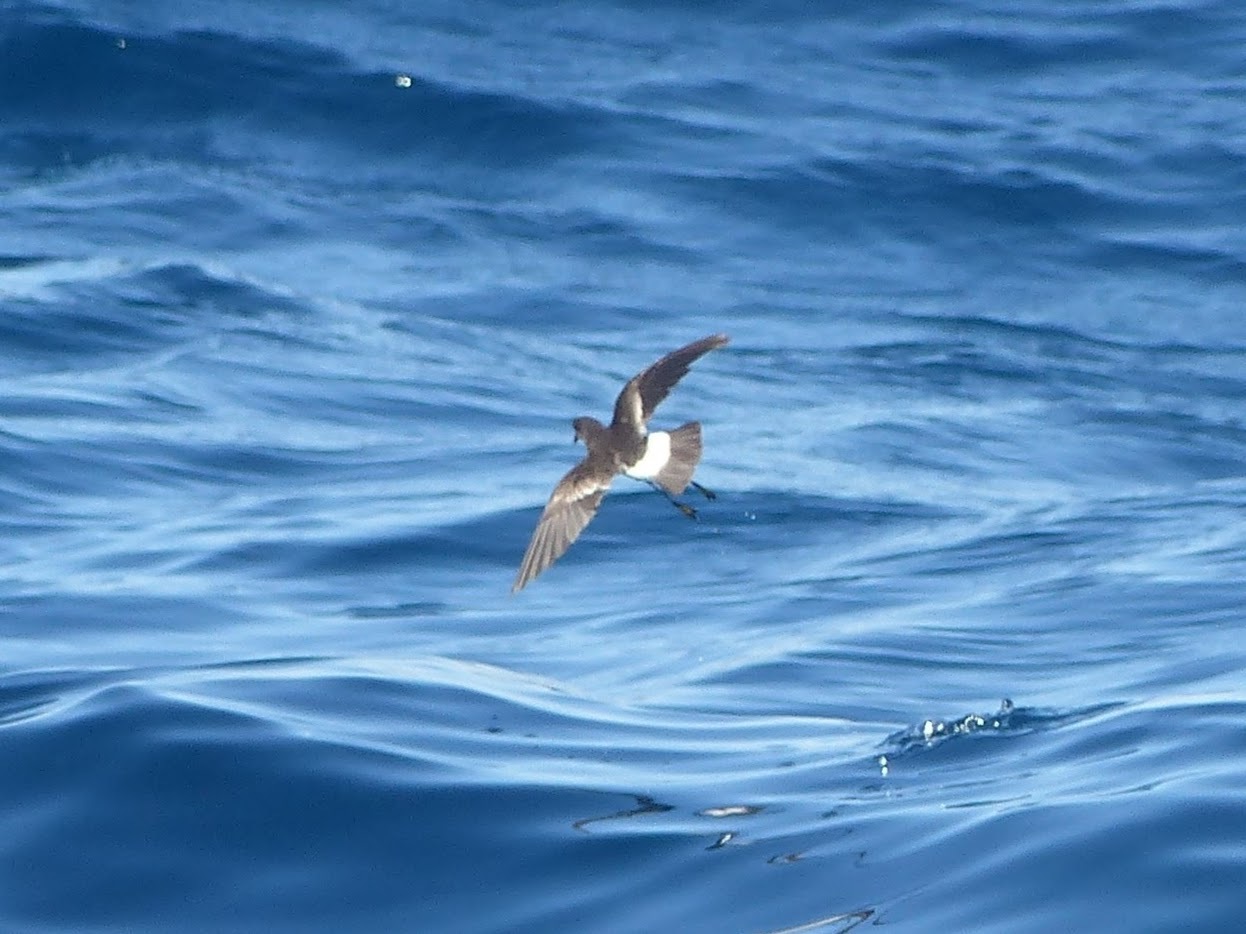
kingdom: Animalia
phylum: Chordata
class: Aves
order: Procellariiformes
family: Hydrobatidae
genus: Oceanites
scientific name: Oceanites oceanicus
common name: Wilson's storm petrel
